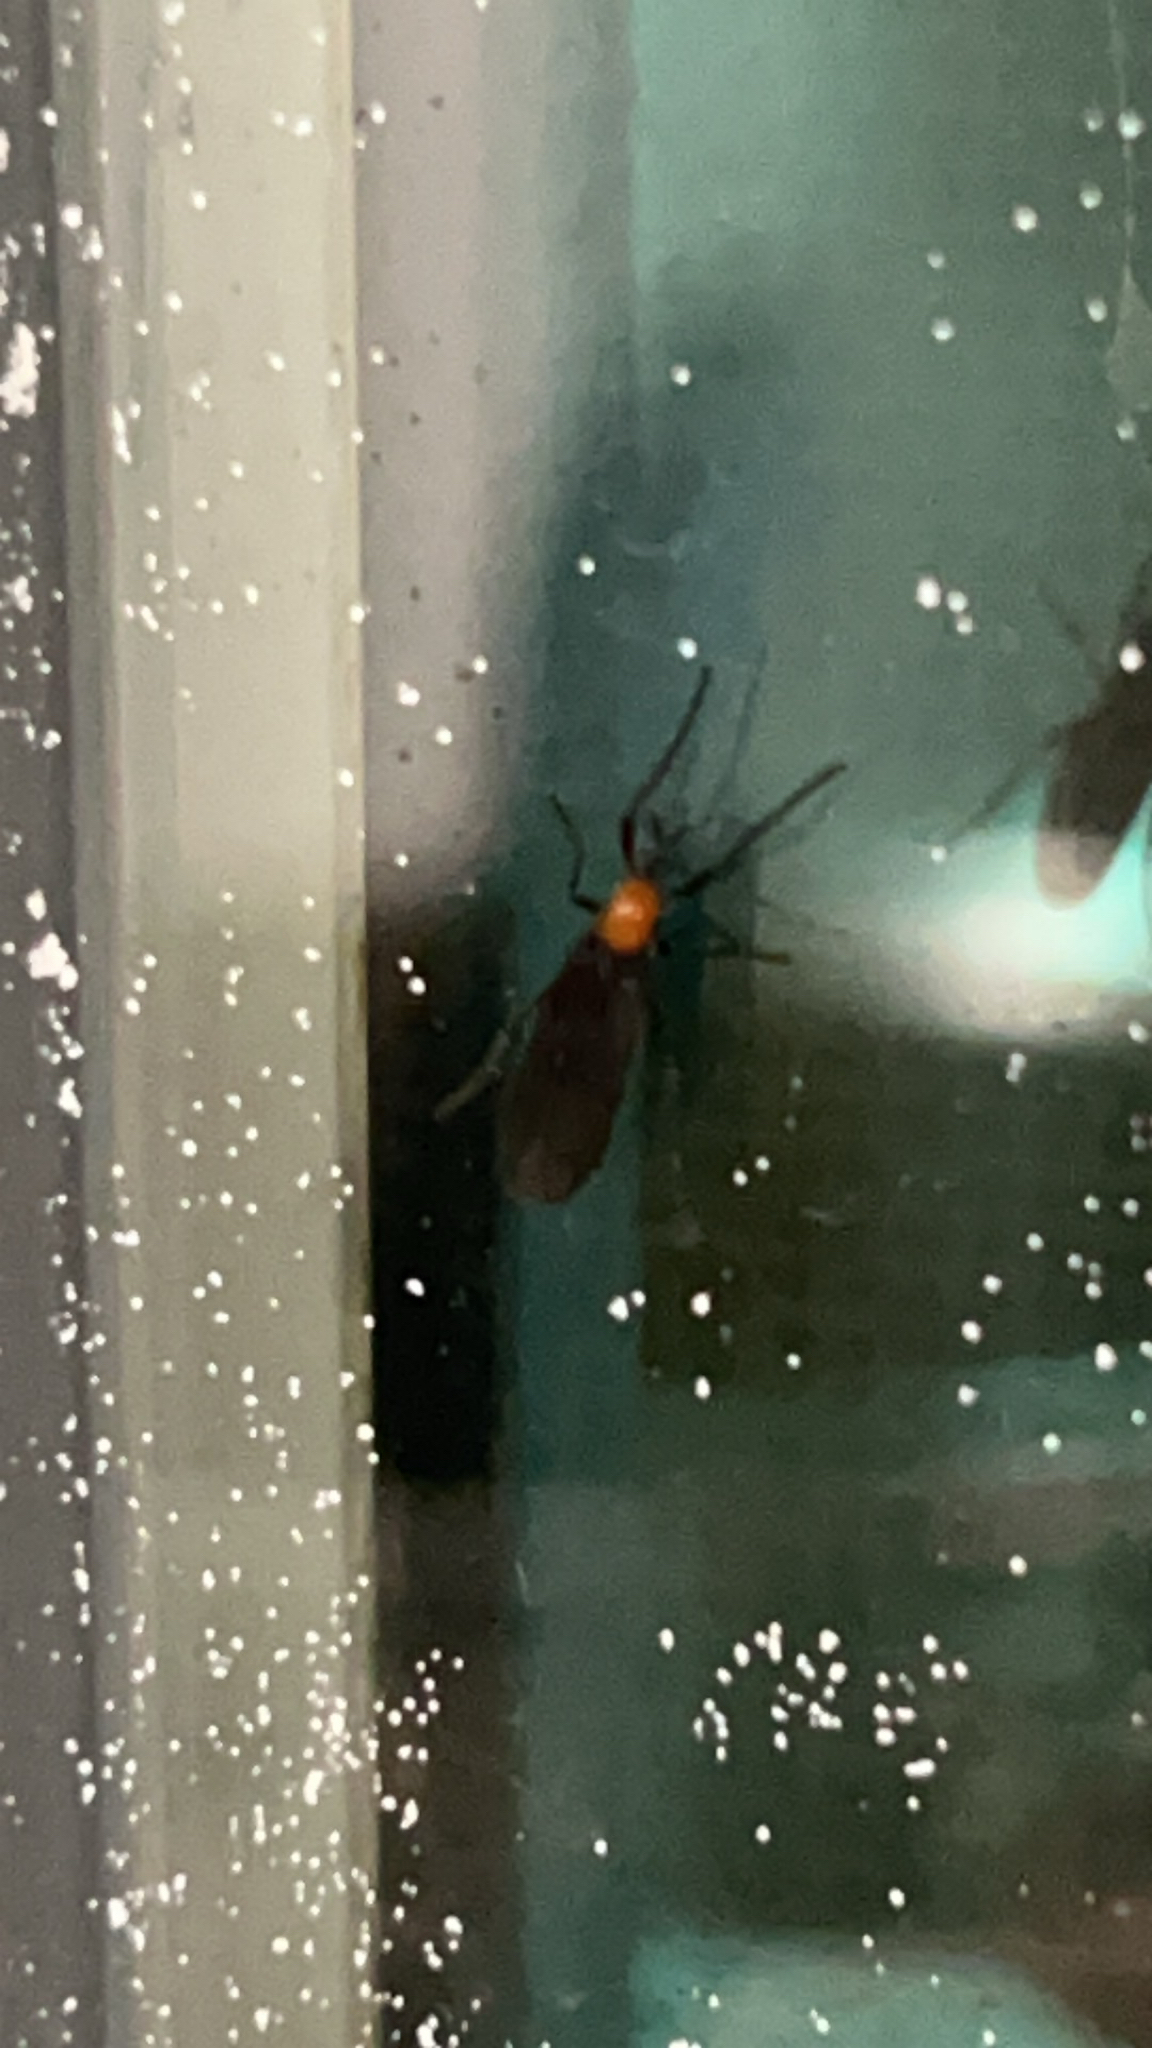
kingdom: Animalia
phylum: Arthropoda
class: Insecta
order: Diptera
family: Bibionidae
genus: Plecia
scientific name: Plecia nearctica
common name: March fly
